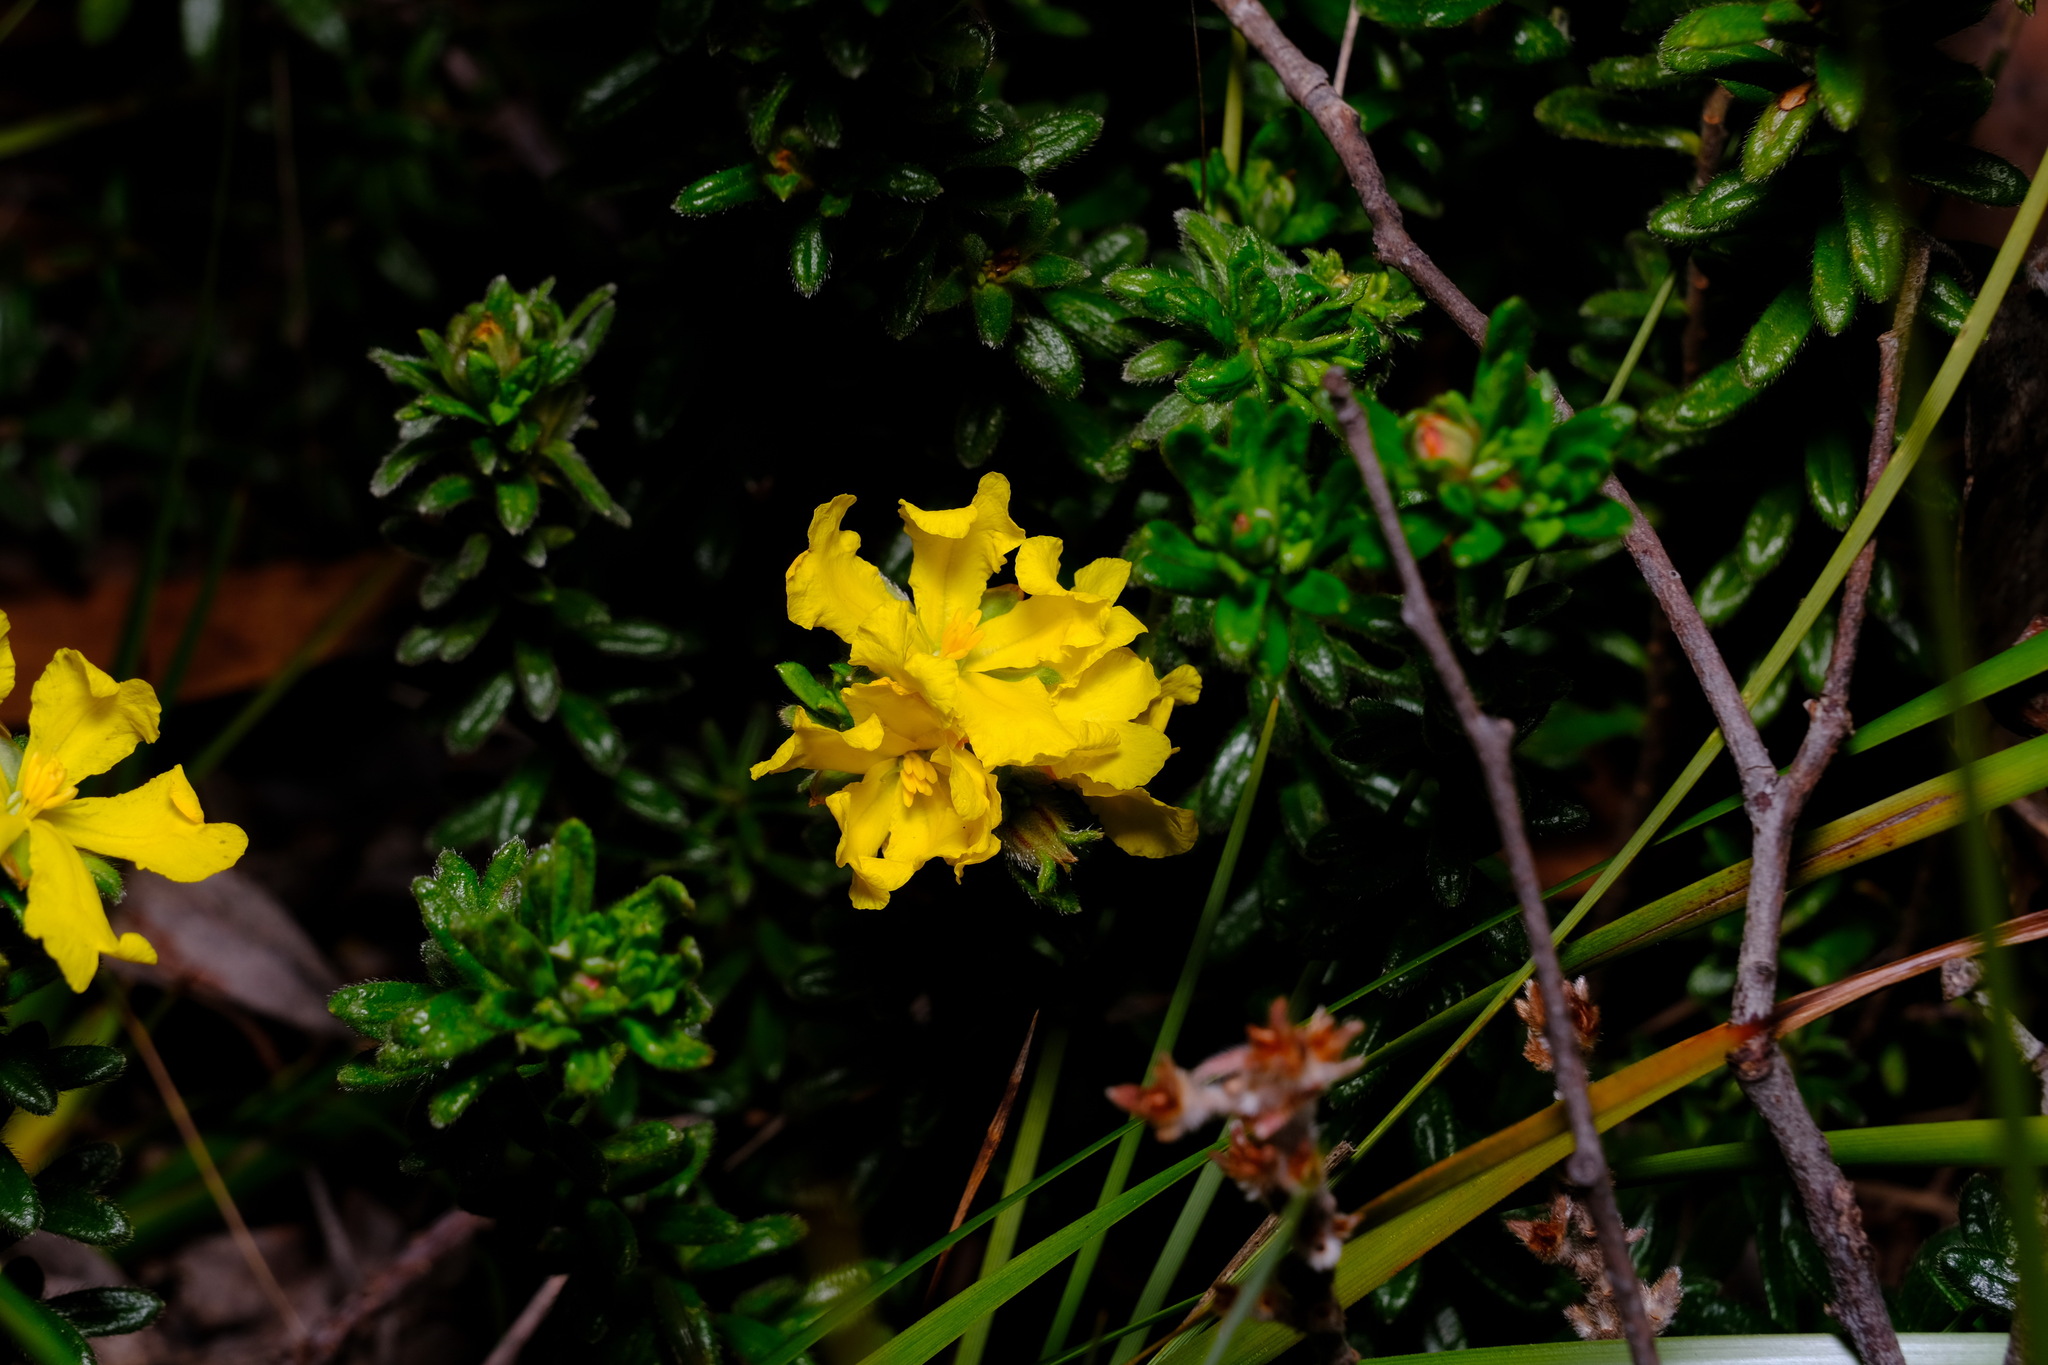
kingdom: Plantae
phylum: Tracheophyta
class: Magnoliopsida
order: Dilleniales
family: Dilleniaceae
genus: Hibbertia
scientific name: Hibbertia sericea
